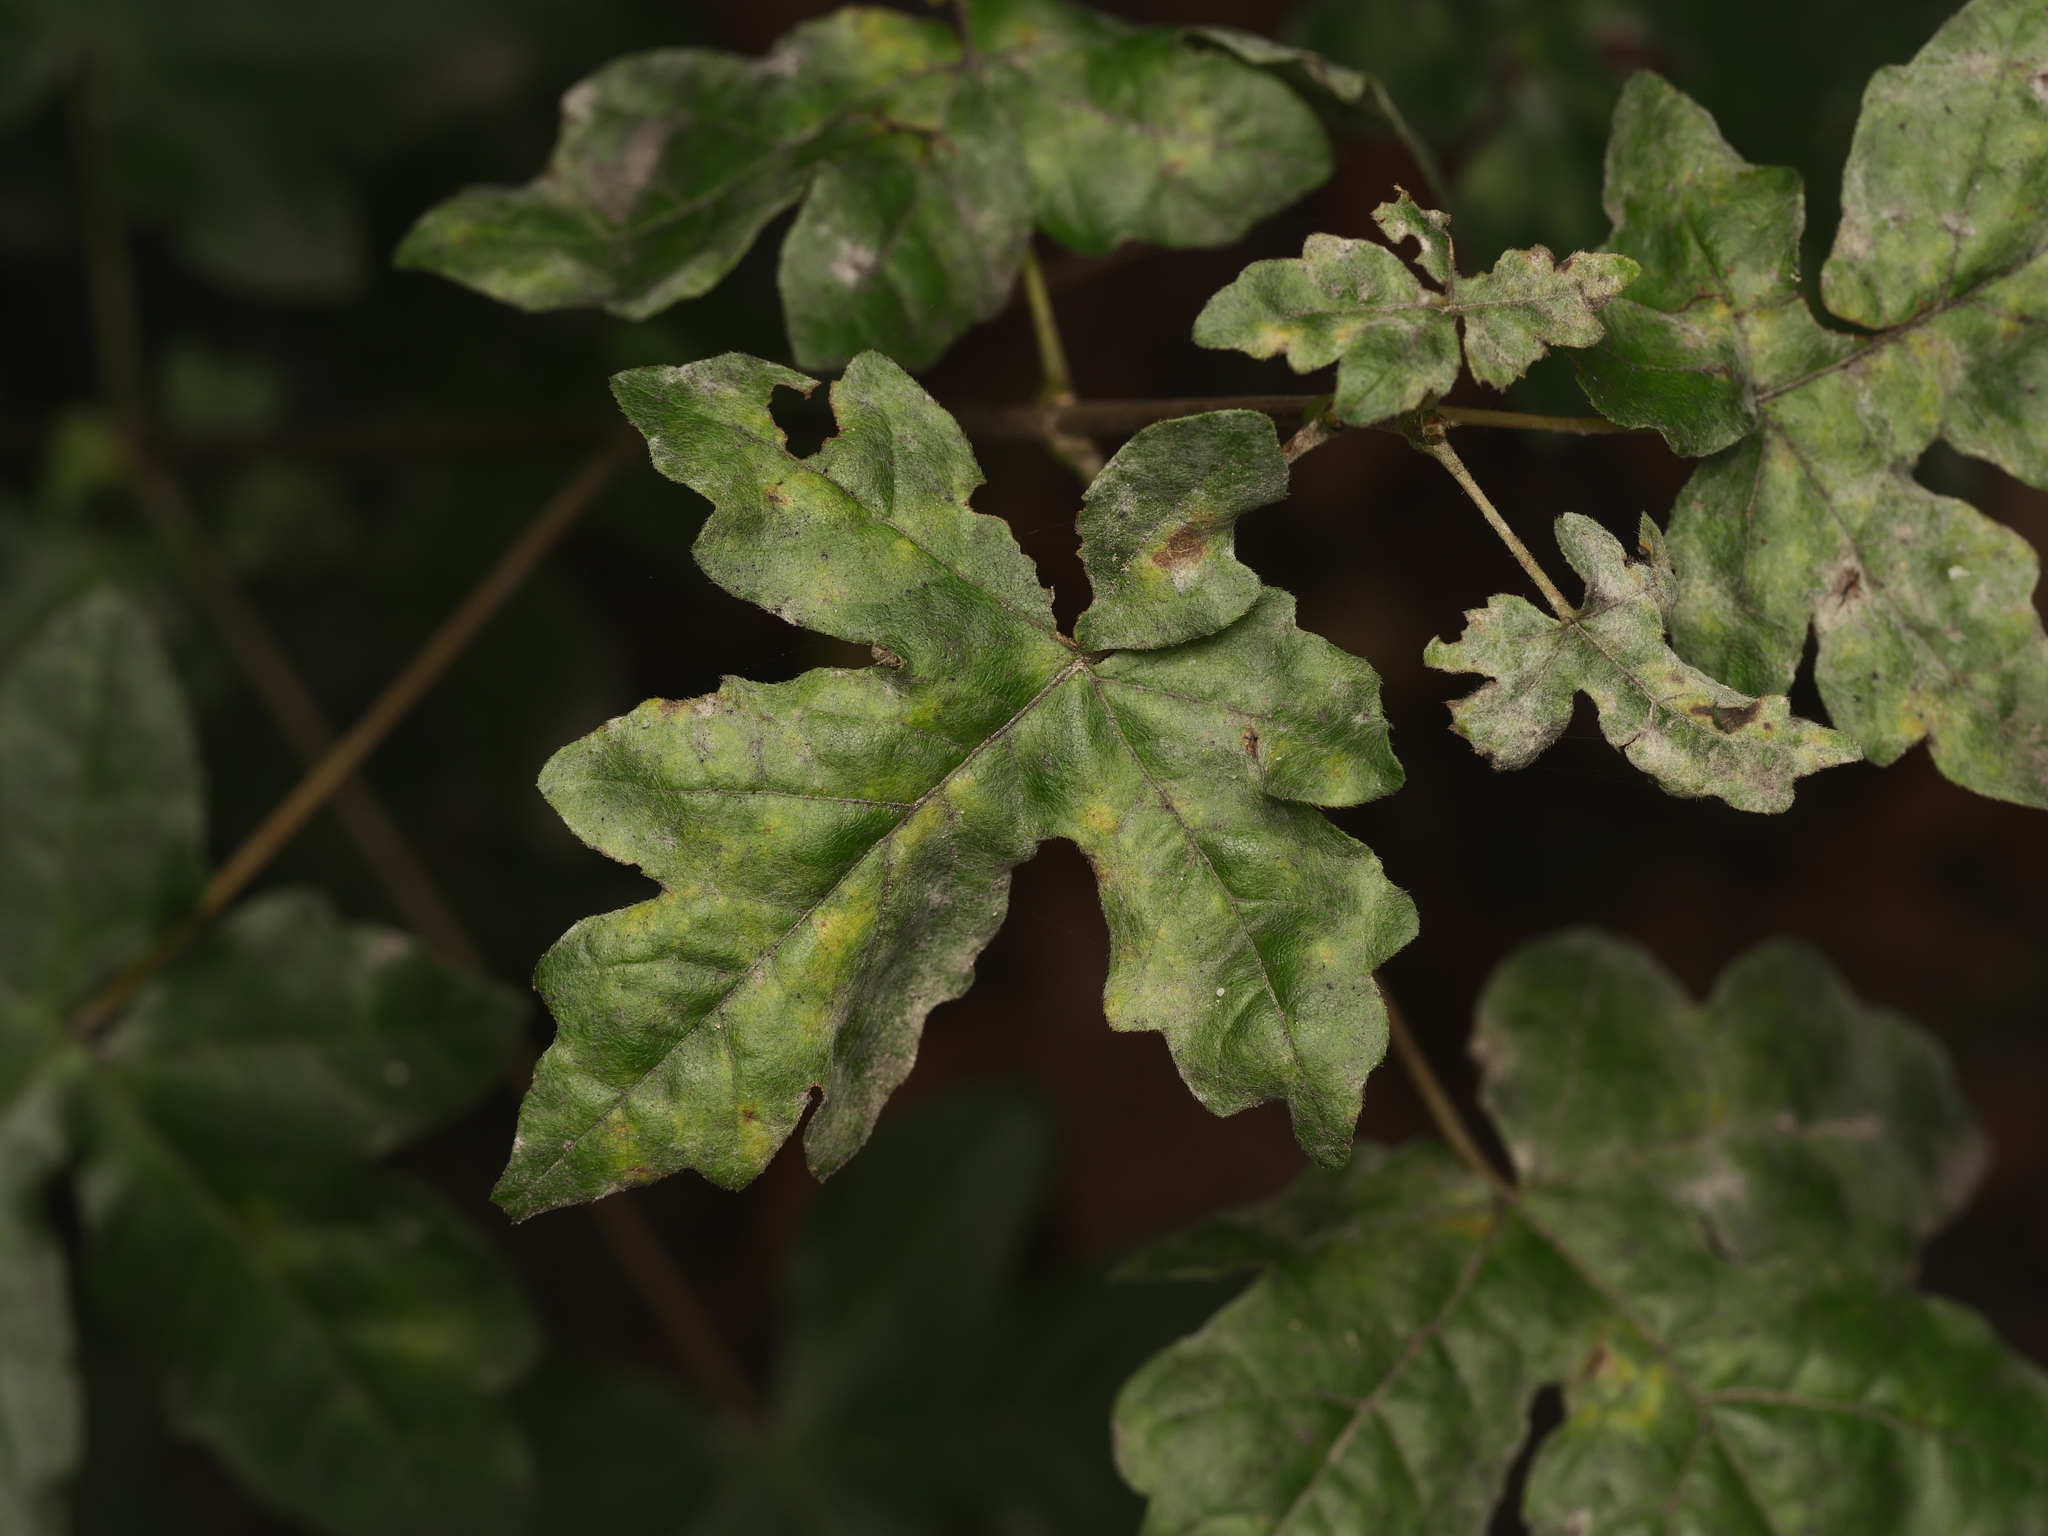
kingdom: Plantae
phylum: Tracheophyta
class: Magnoliopsida
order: Sapindales
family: Sapindaceae
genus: Acer
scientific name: Acer campestre
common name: Field maple
